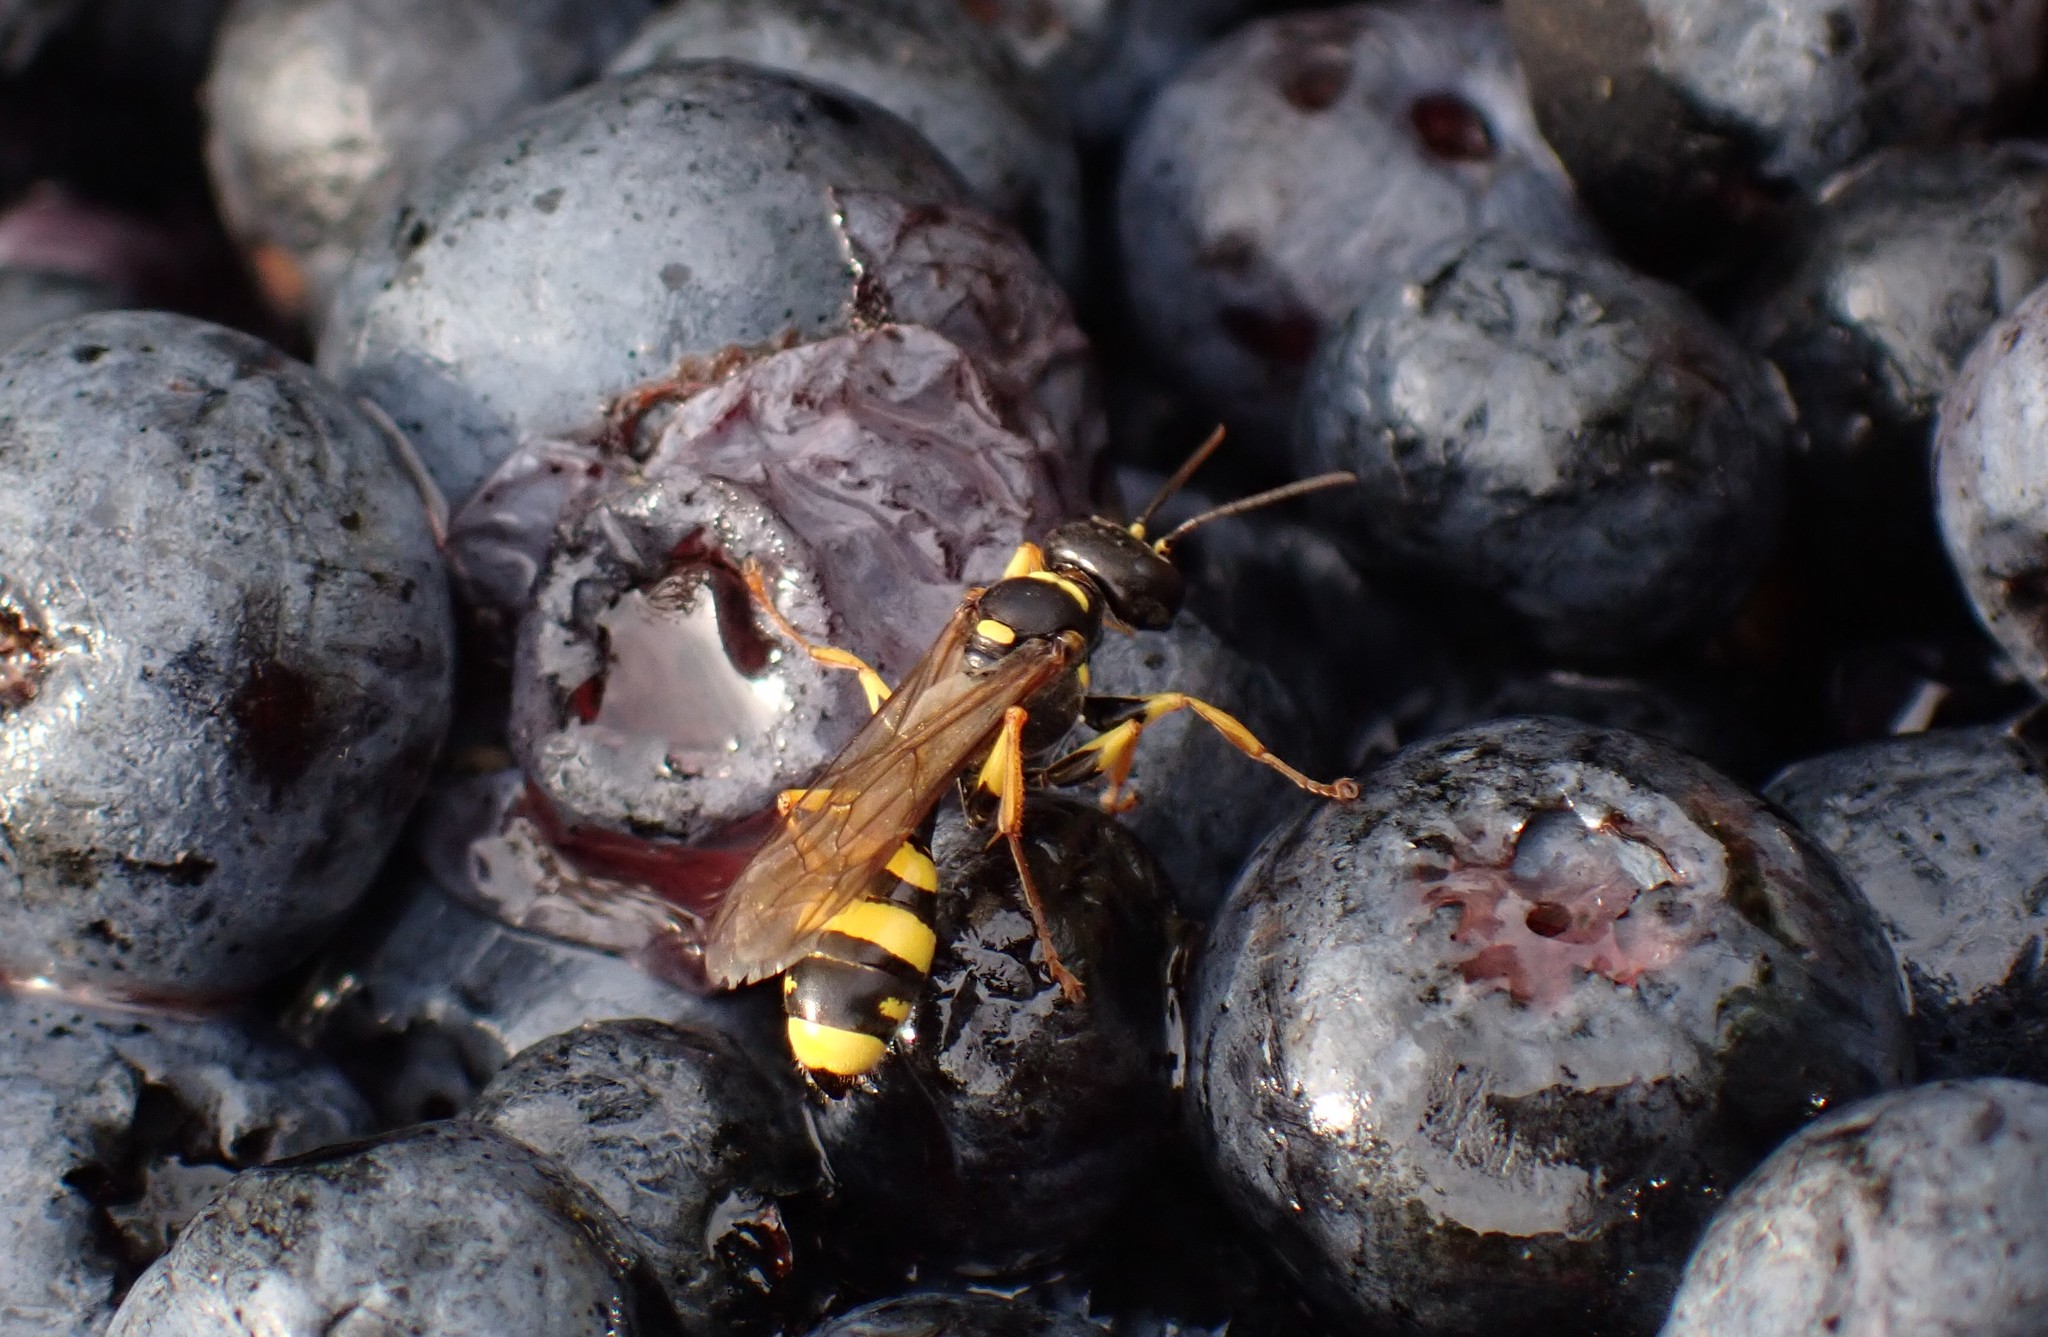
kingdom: Animalia
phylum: Arthropoda
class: Insecta
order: Hymenoptera
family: Crabronidae
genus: Mellinus
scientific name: Mellinus arvensis
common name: Field digger wasp
